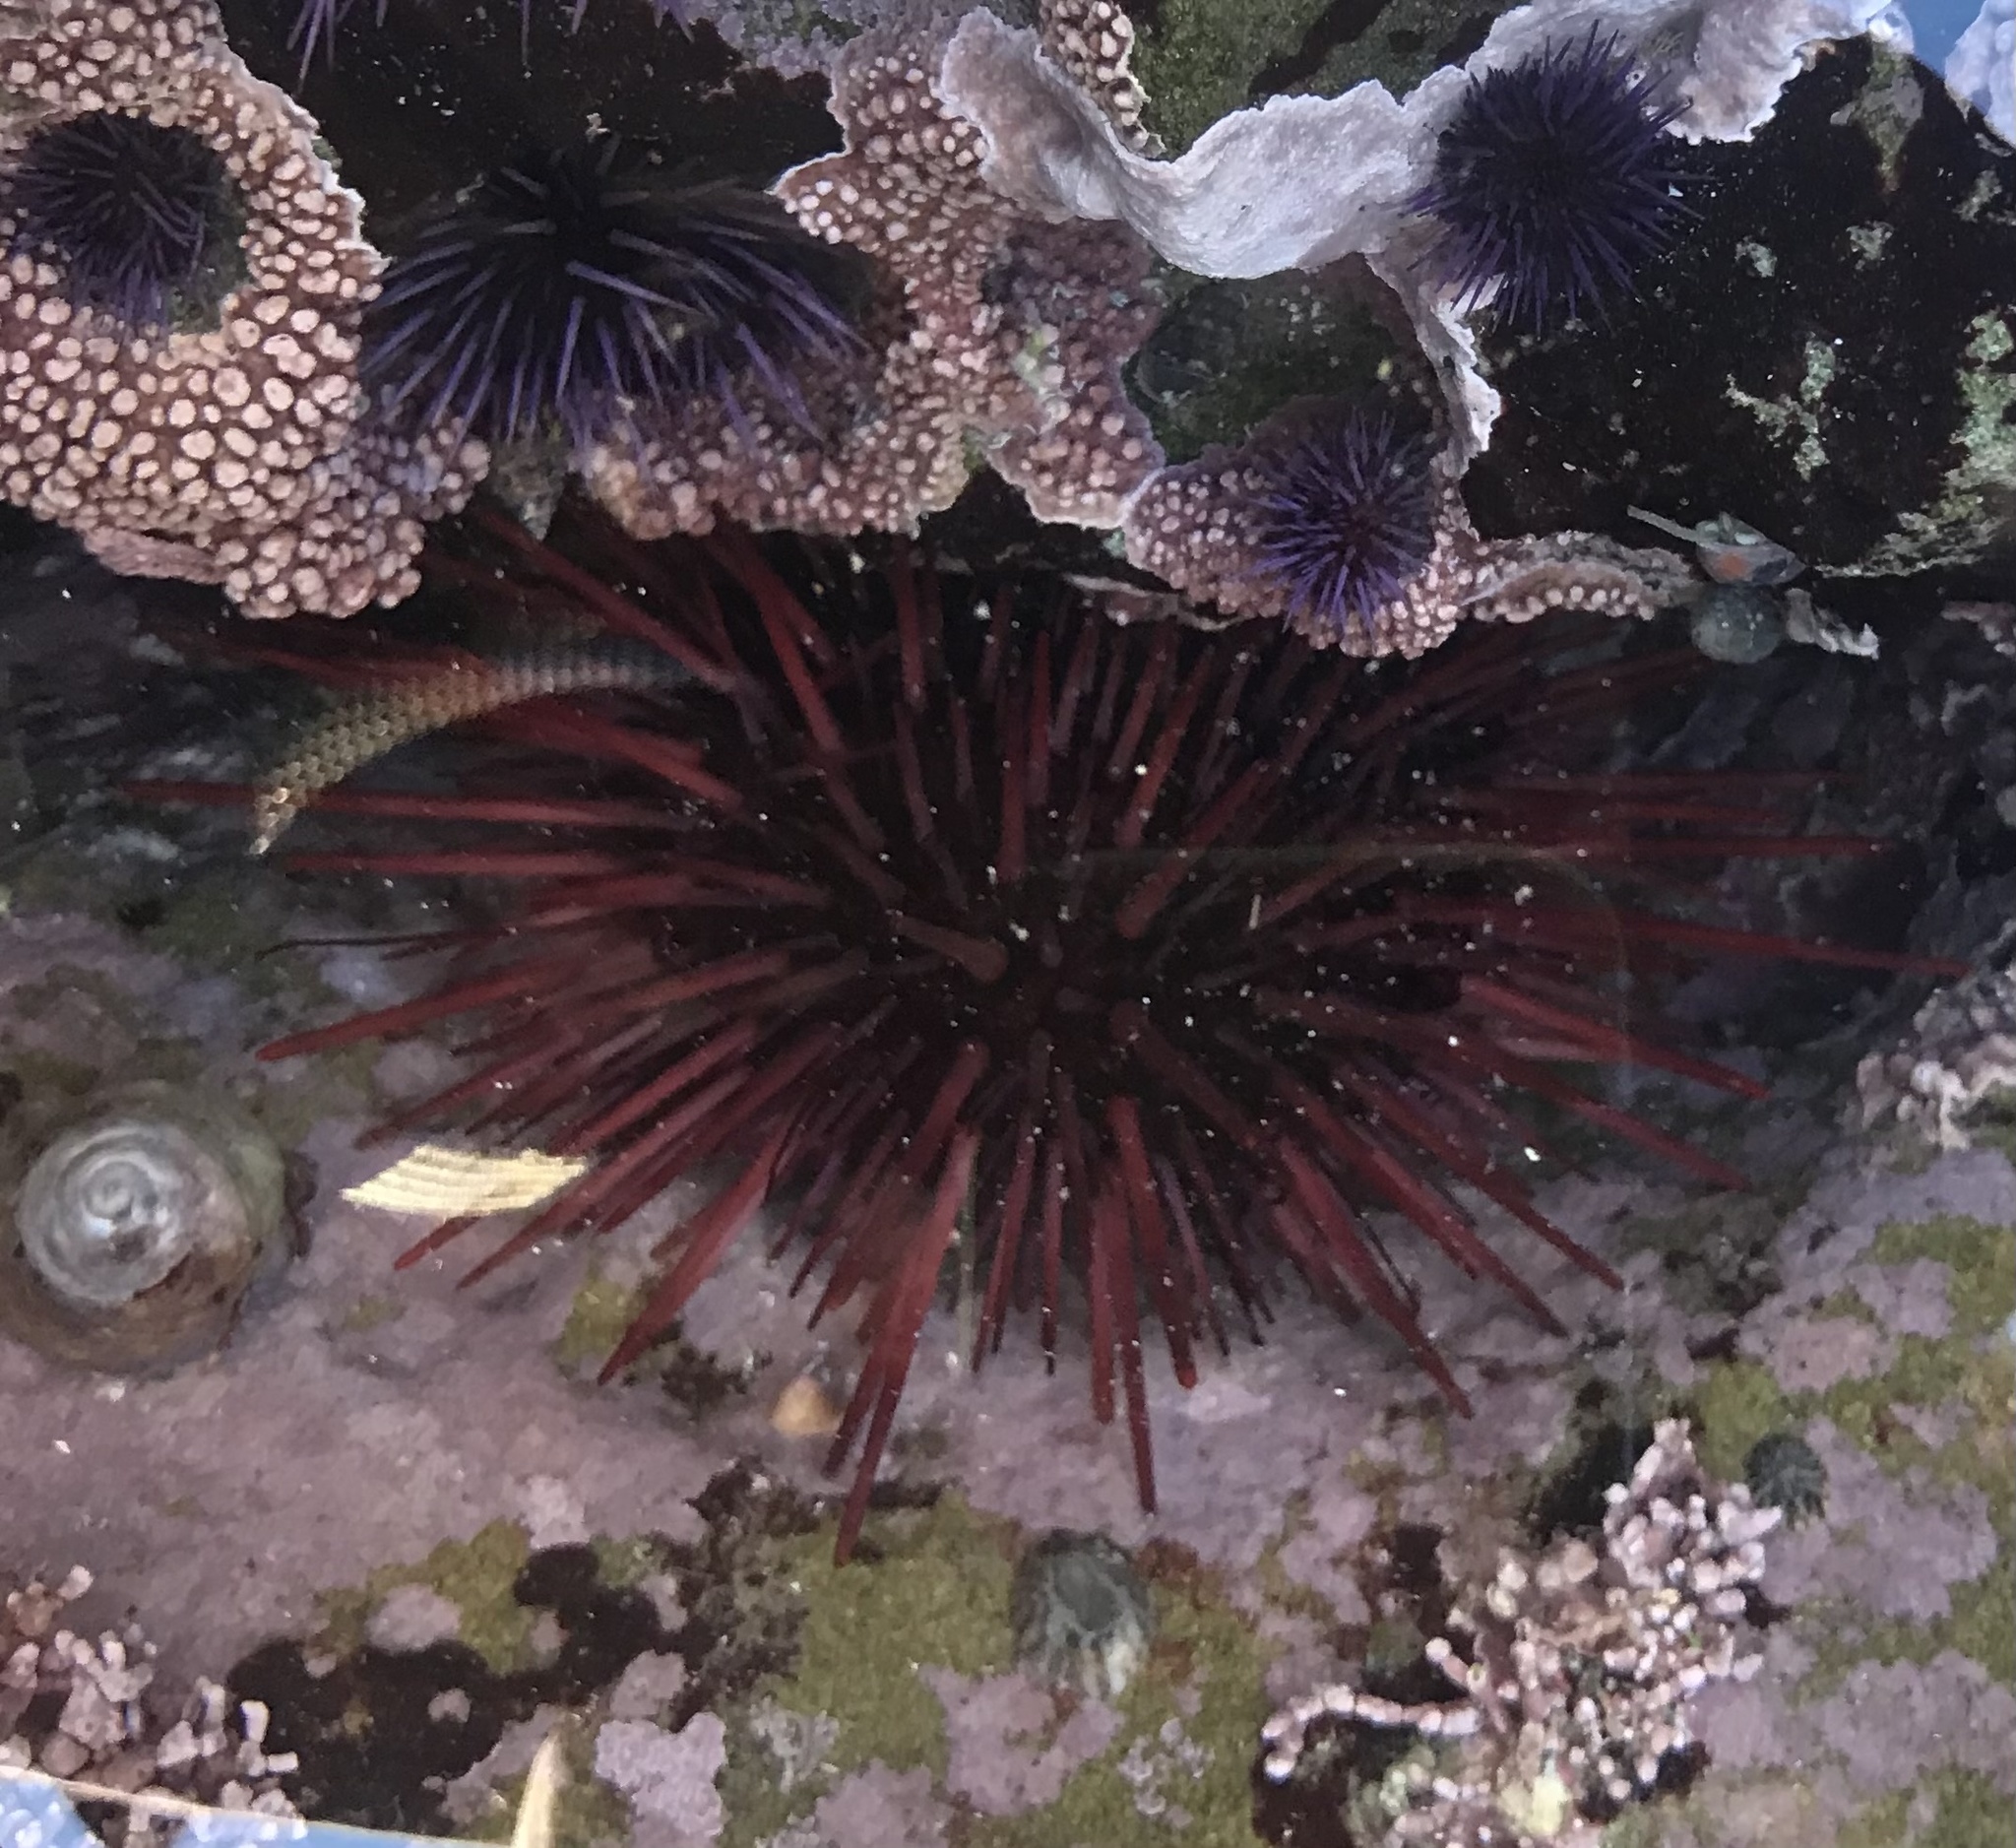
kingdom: Animalia
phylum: Echinodermata
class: Echinoidea
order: Camarodonta
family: Strongylocentrotidae
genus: Mesocentrotus
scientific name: Mesocentrotus franciscanus
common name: Red sea urchin
